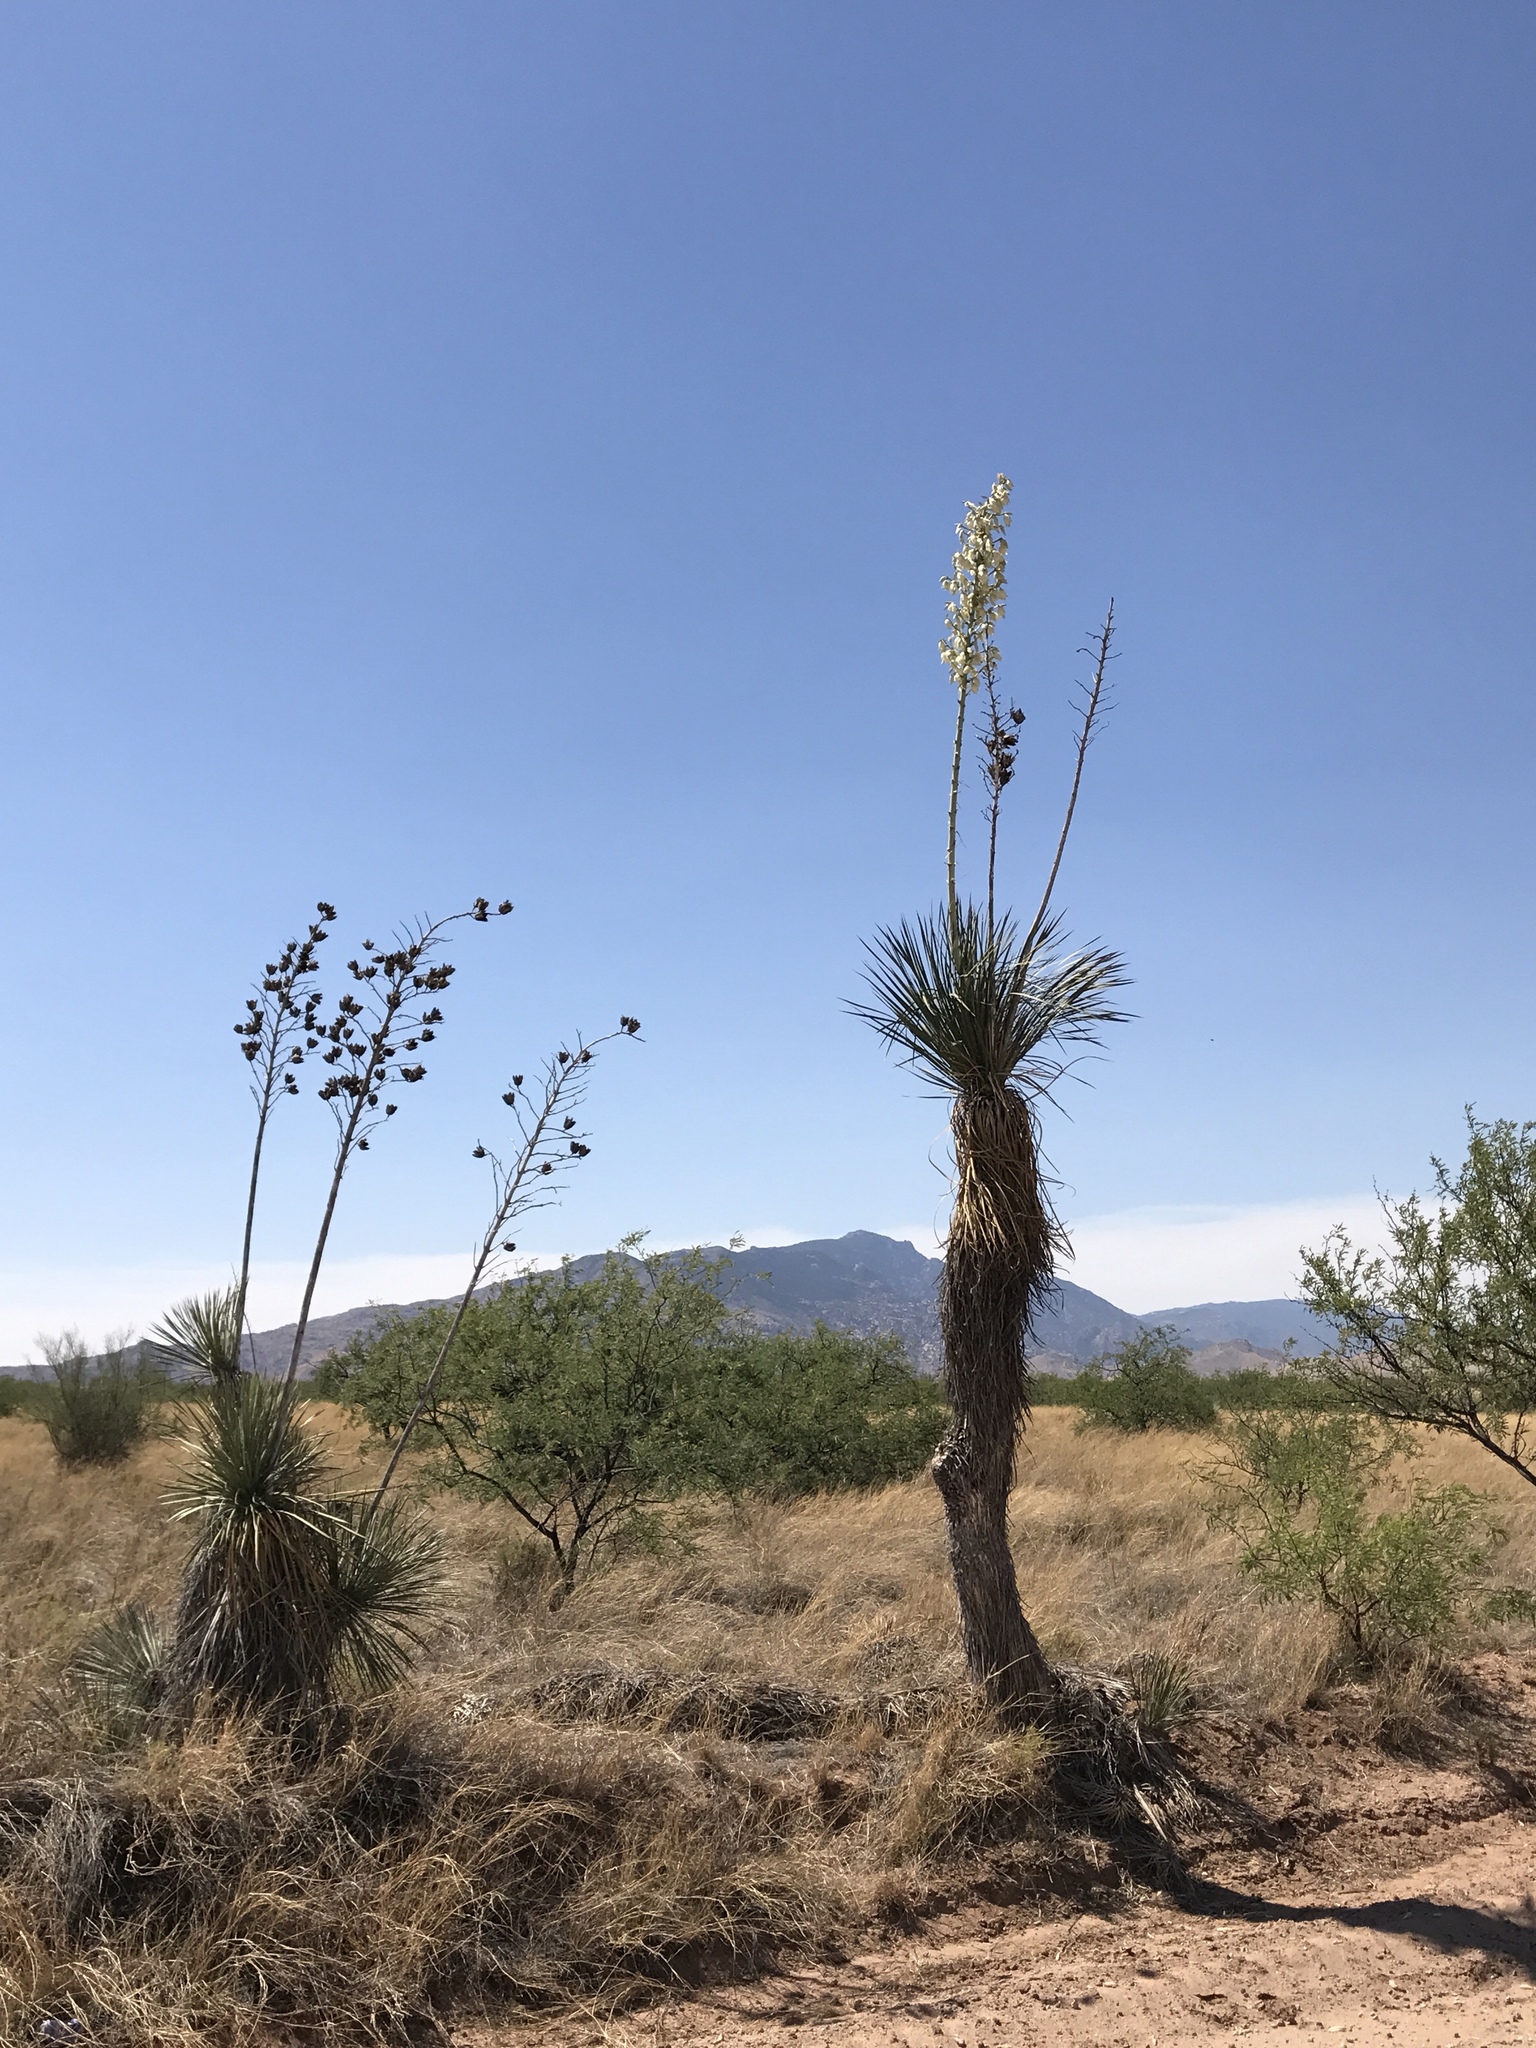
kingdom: Plantae
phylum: Tracheophyta
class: Liliopsida
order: Asparagales
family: Asparagaceae
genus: Yucca
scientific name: Yucca elata
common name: Palmella
